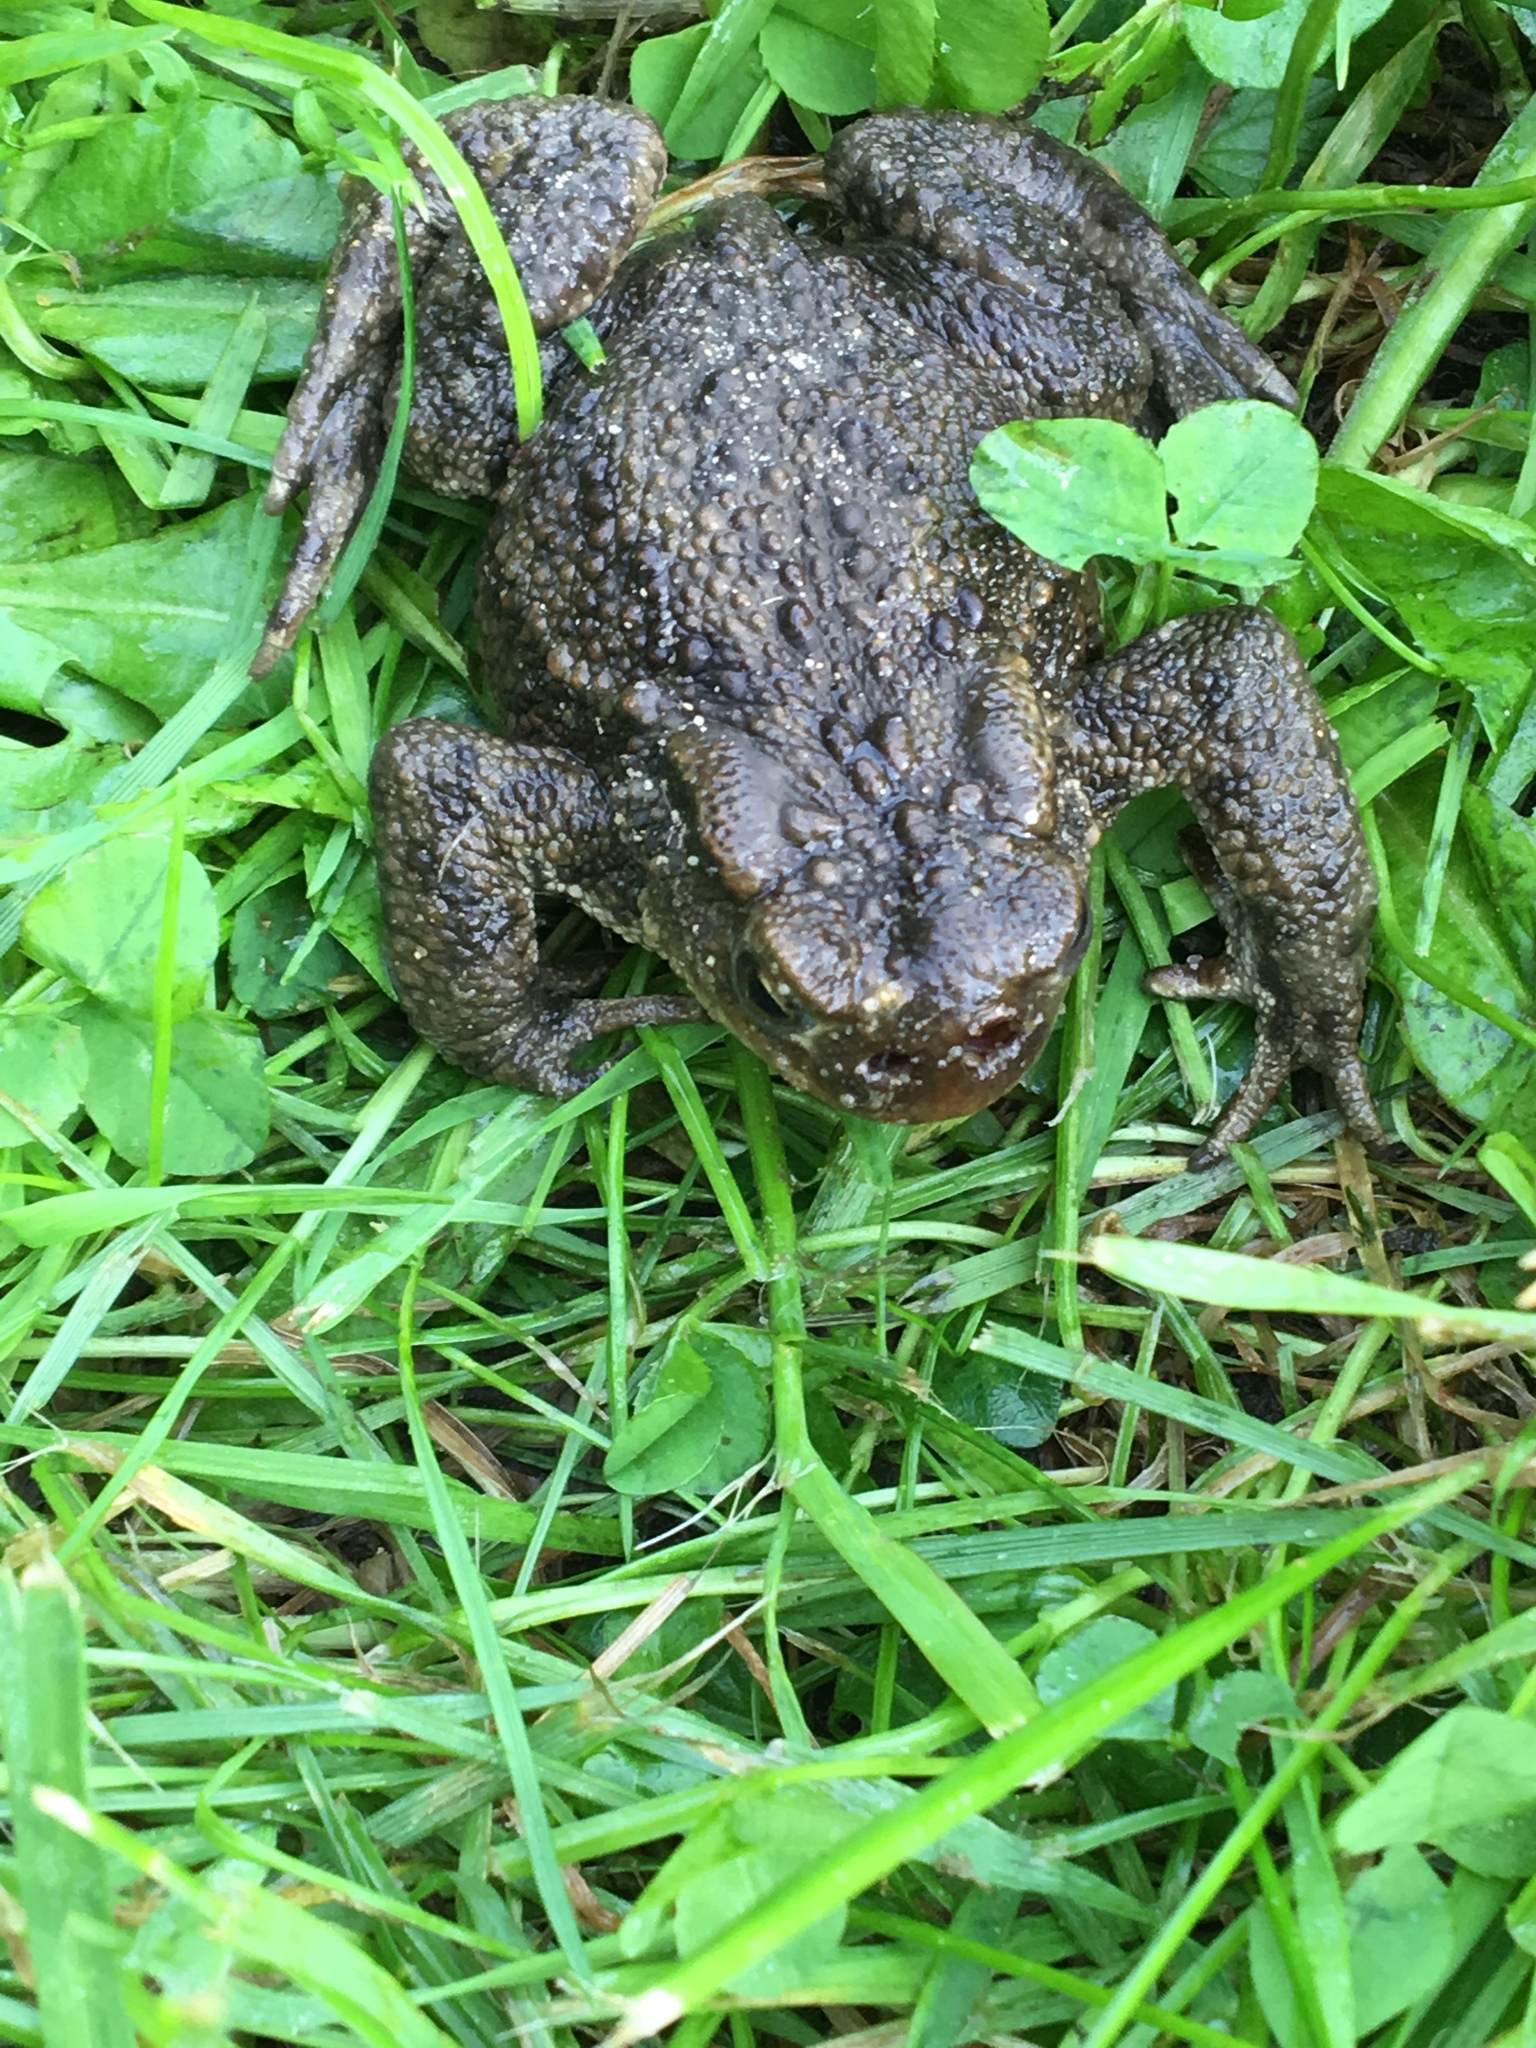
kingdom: Animalia
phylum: Chordata
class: Amphibia
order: Anura
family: Bufonidae
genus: Bufo
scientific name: Bufo bufo
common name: Common toad
